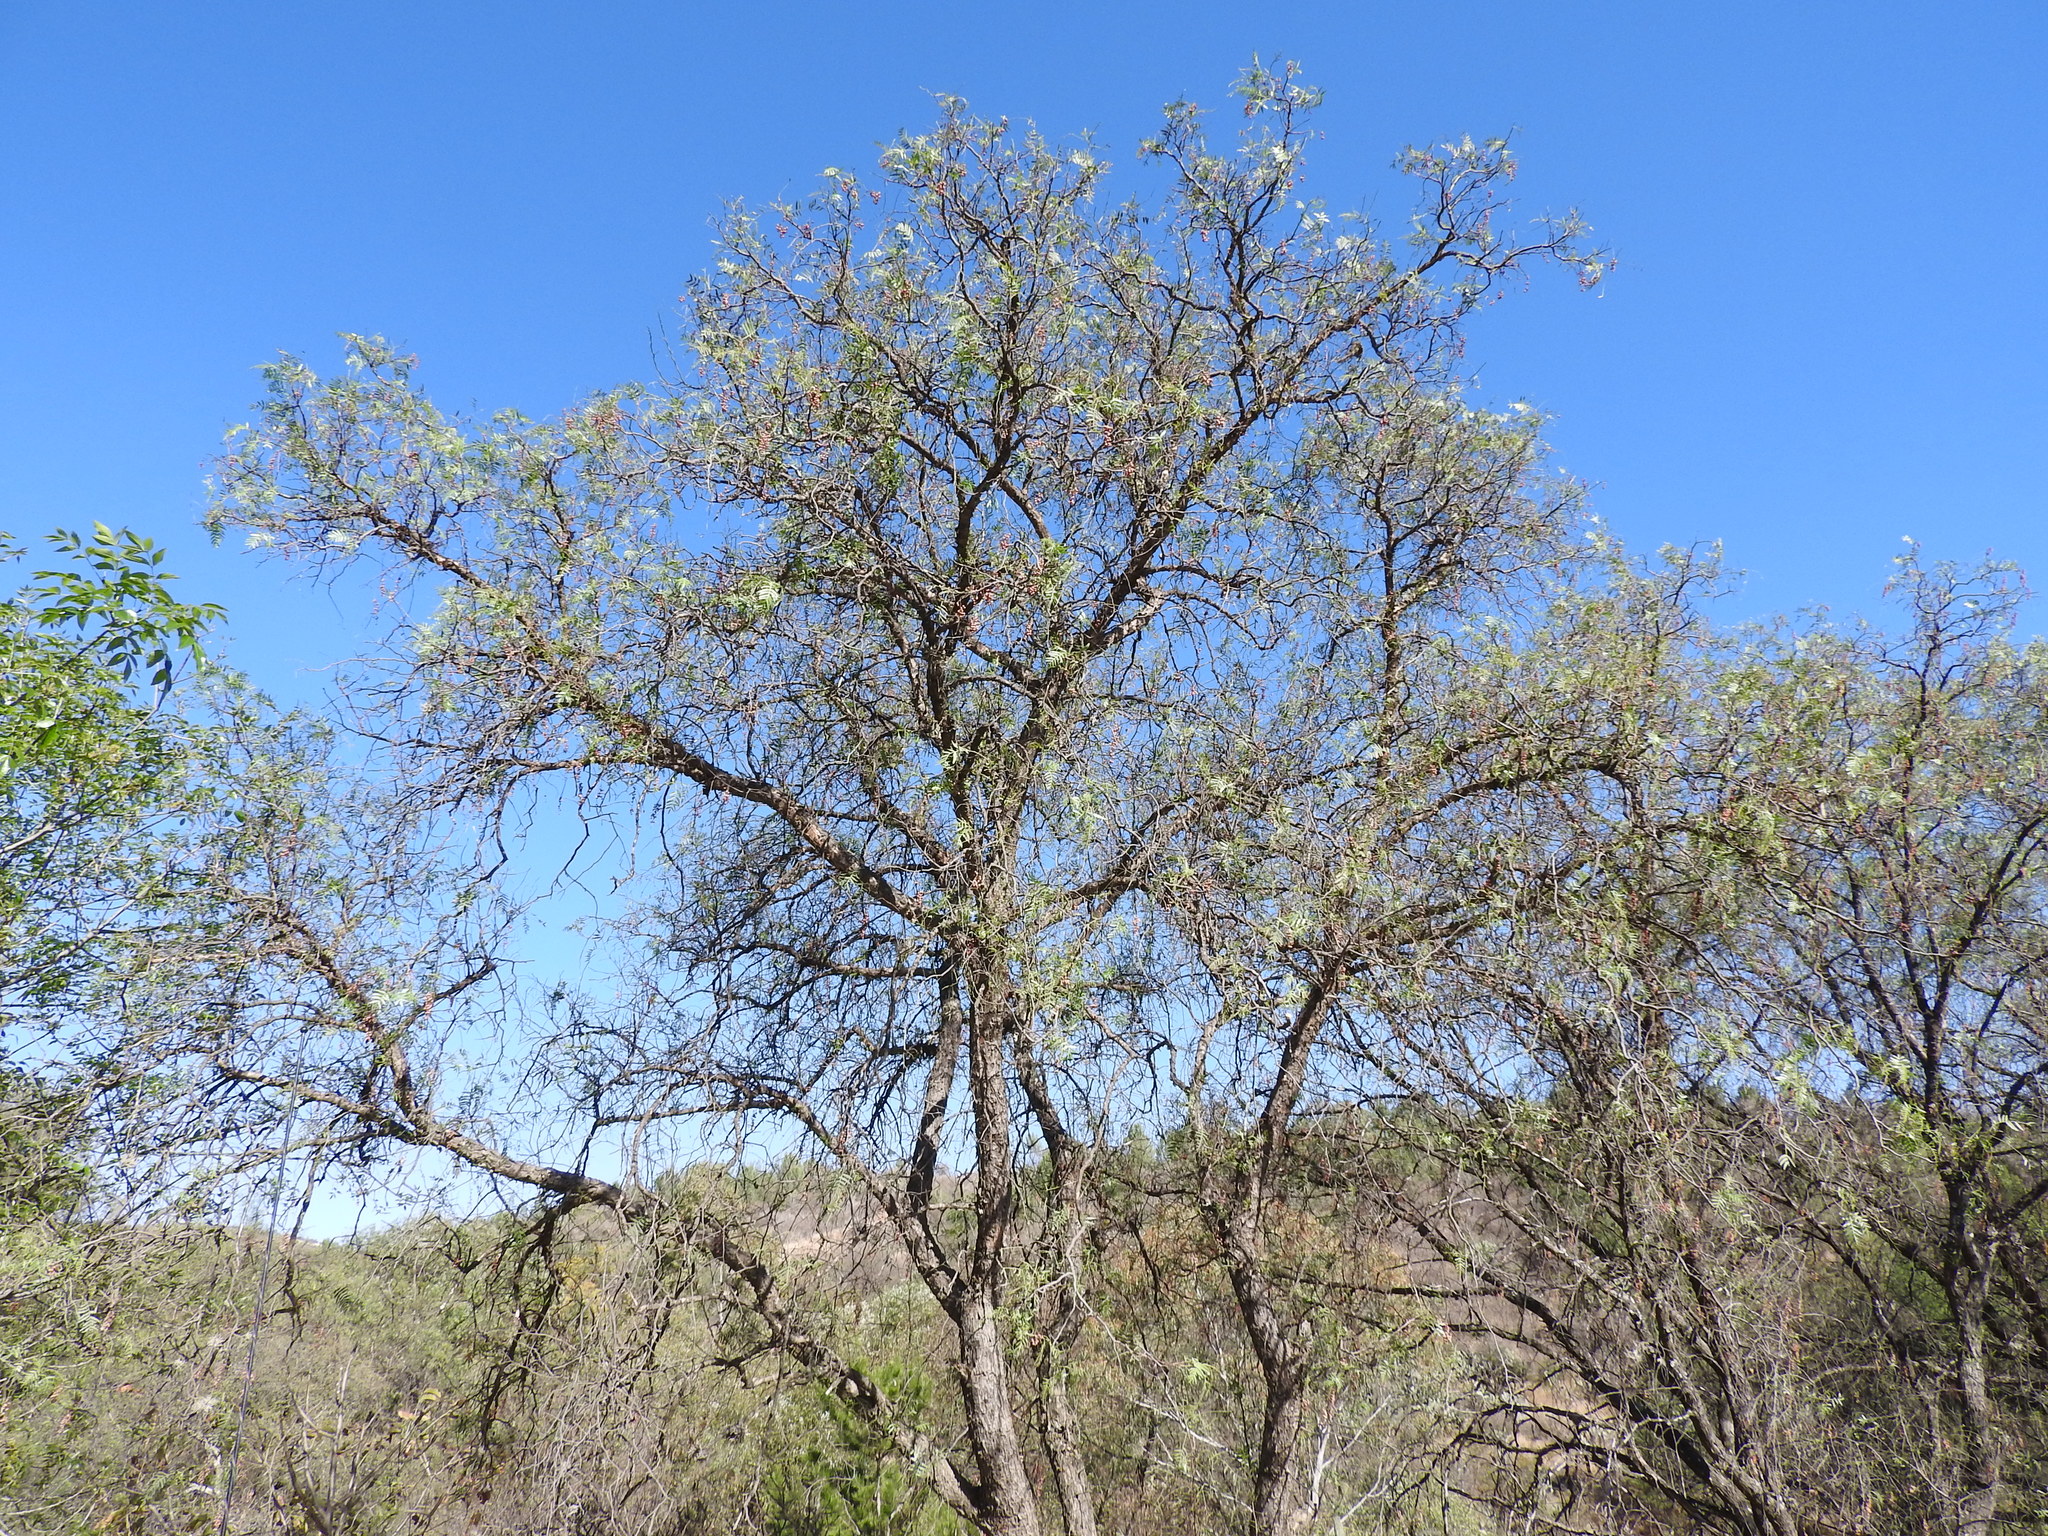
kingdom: Plantae
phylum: Tracheophyta
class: Magnoliopsida
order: Sapindales
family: Anacardiaceae
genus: Schinus
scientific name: Schinus molle
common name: Peruvian peppertree
